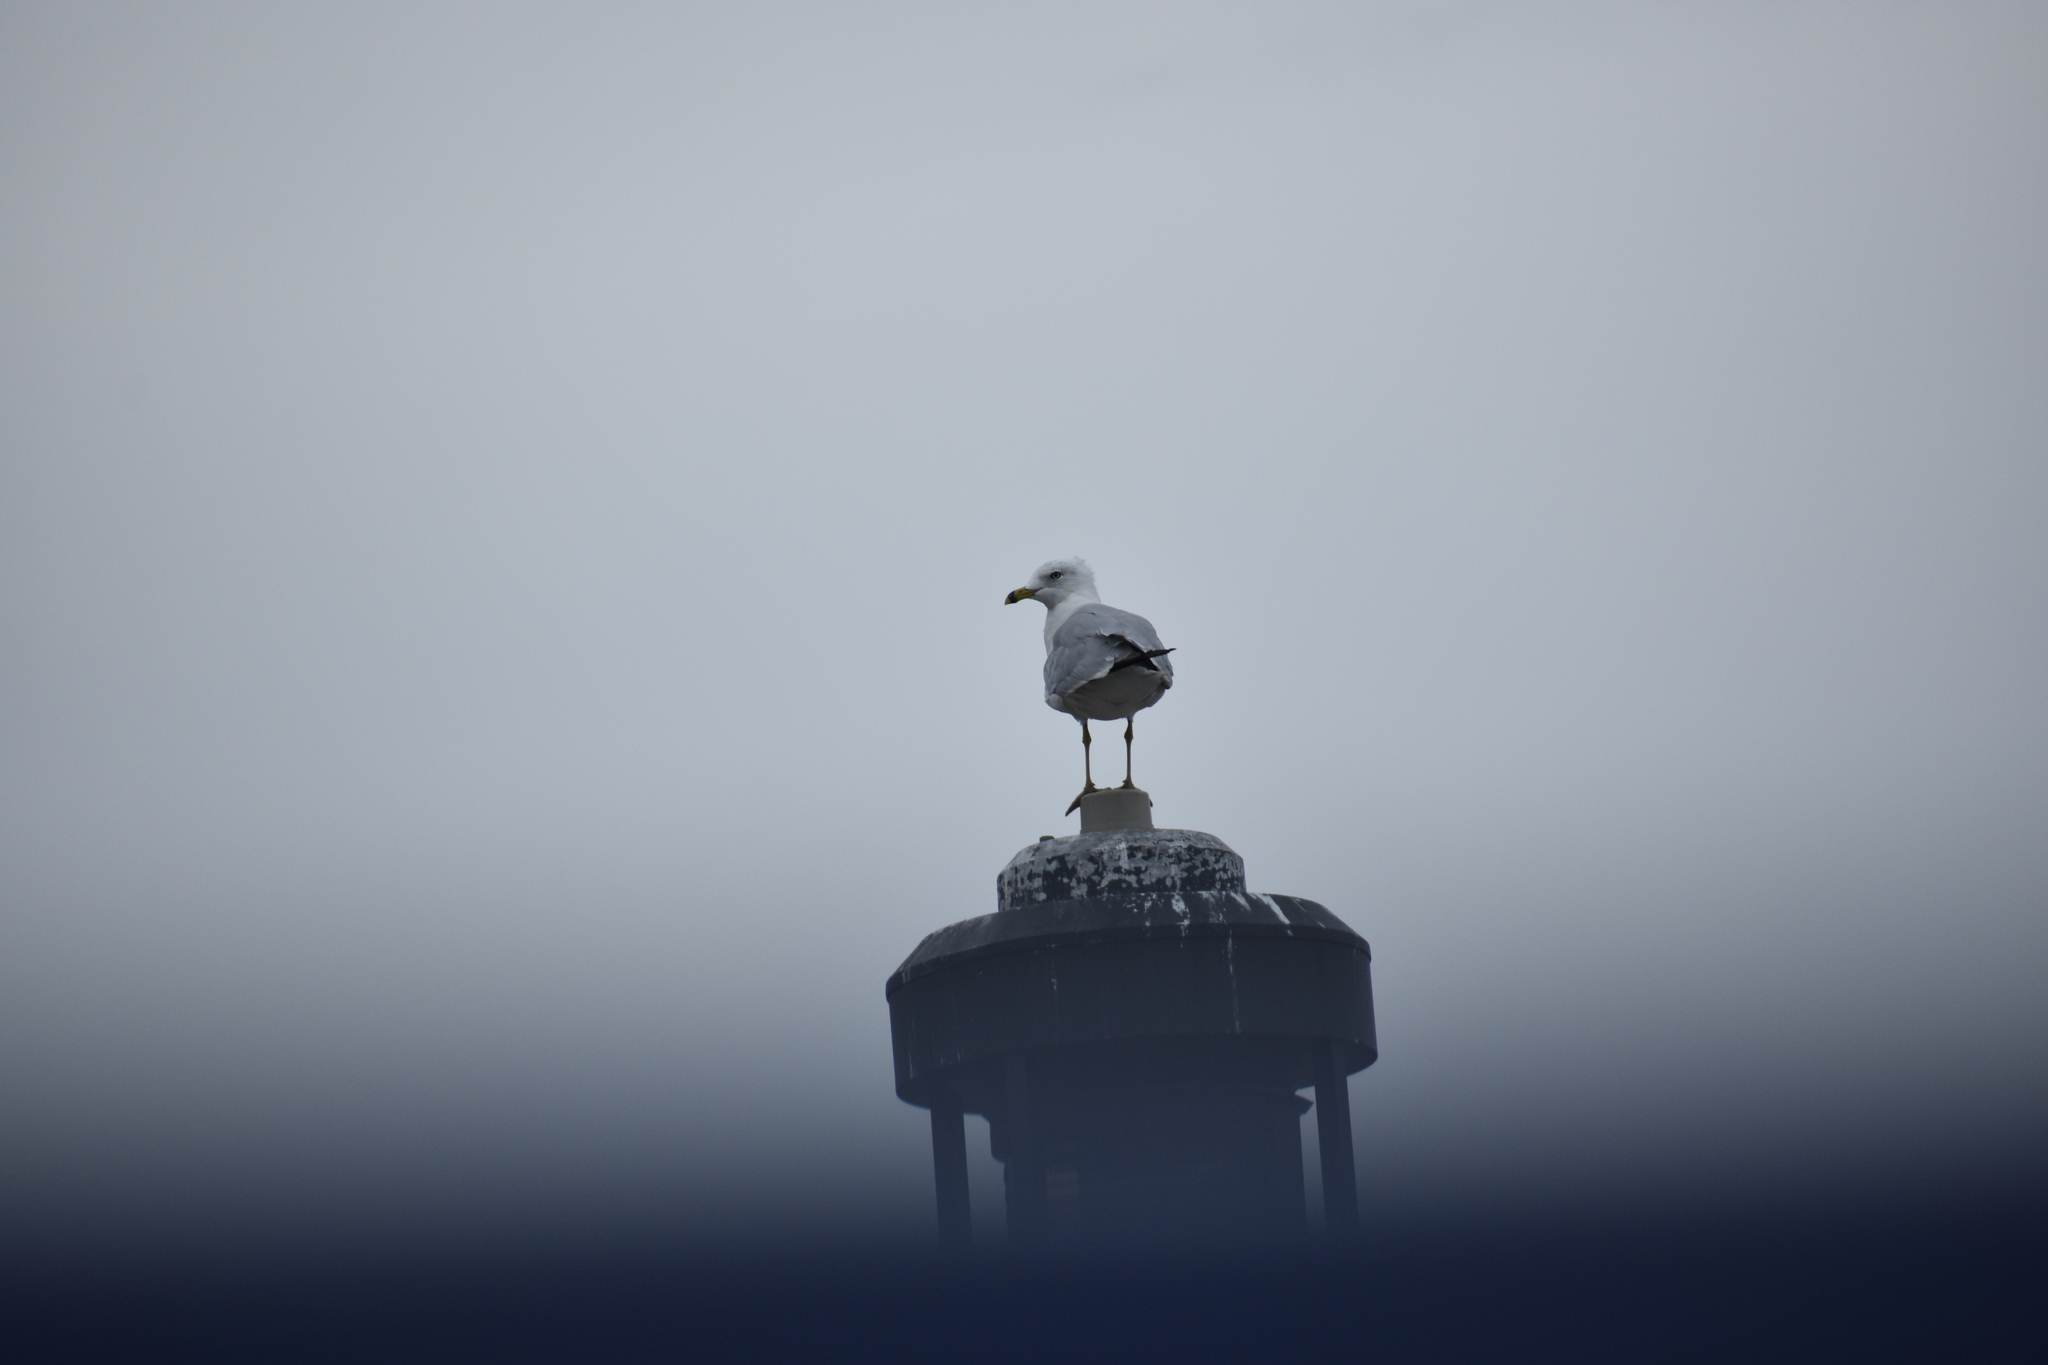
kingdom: Animalia
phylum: Chordata
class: Aves
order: Charadriiformes
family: Laridae
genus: Larus
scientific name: Larus delawarensis
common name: Ring-billed gull
